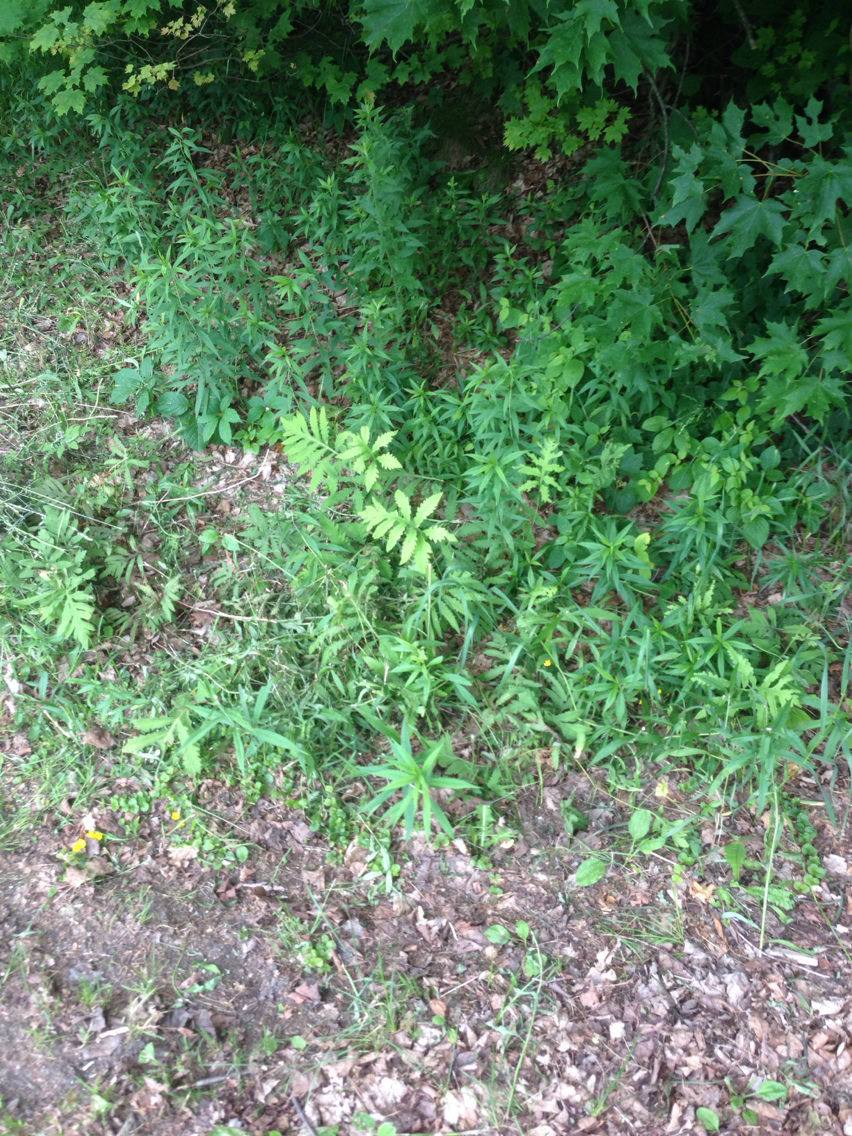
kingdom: Plantae
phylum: Tracheophyta
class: Polypodiopsida
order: Polypodiales
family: Onocleaceae
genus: Onoclea
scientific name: Onoclea sensibilis
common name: Sensitive fern
